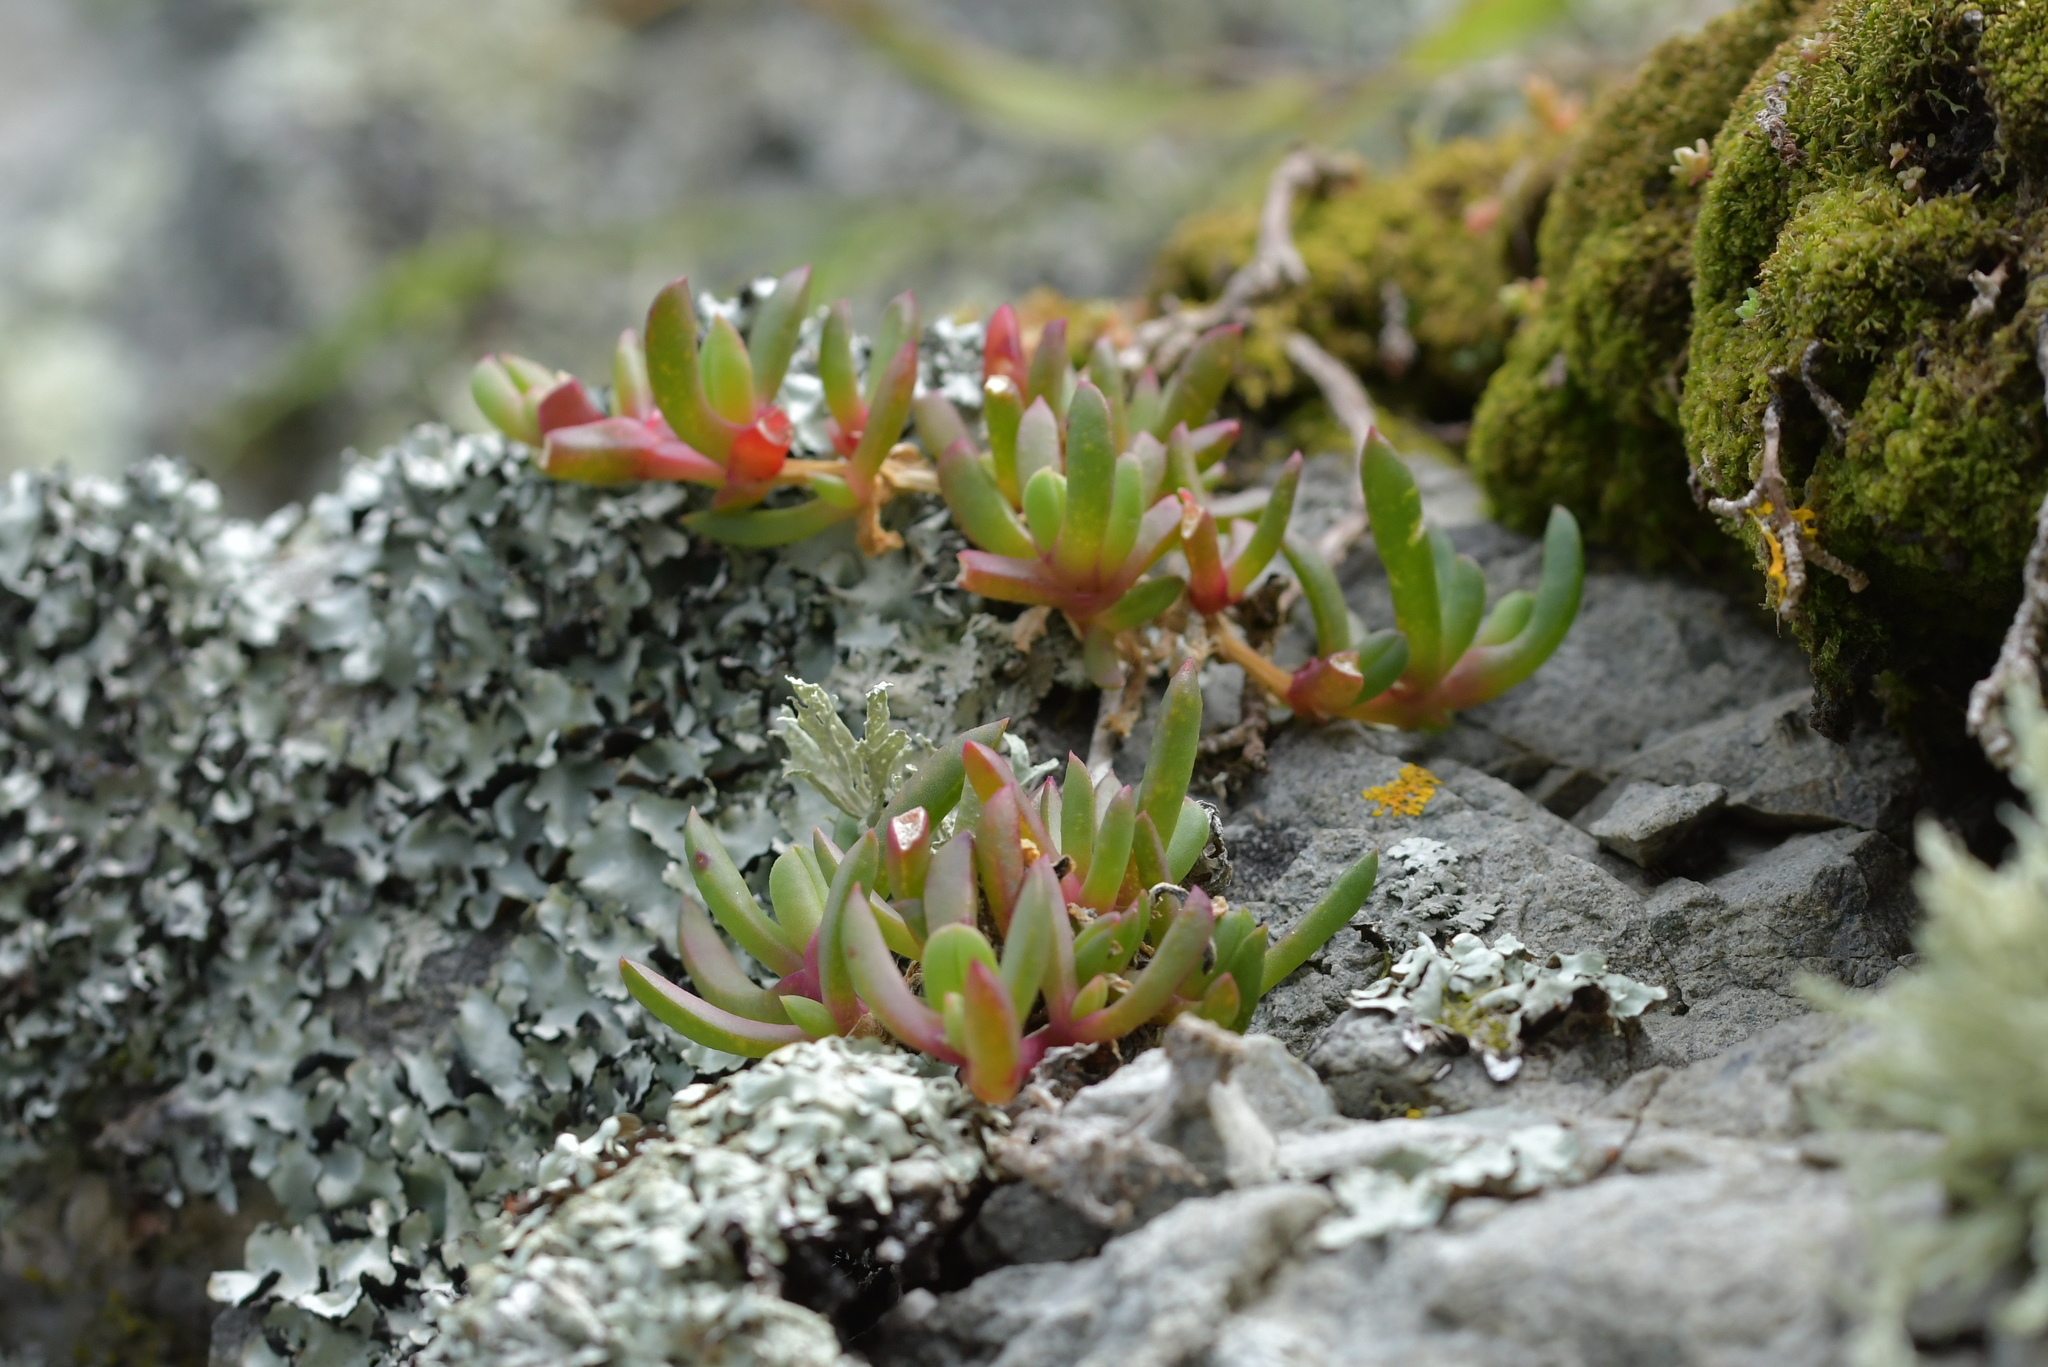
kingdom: Plantae
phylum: Tracheophyta
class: Magnoliopsida
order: Caryophyllales
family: Aizoaceae
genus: Disphyma
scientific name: Disphyma australe
